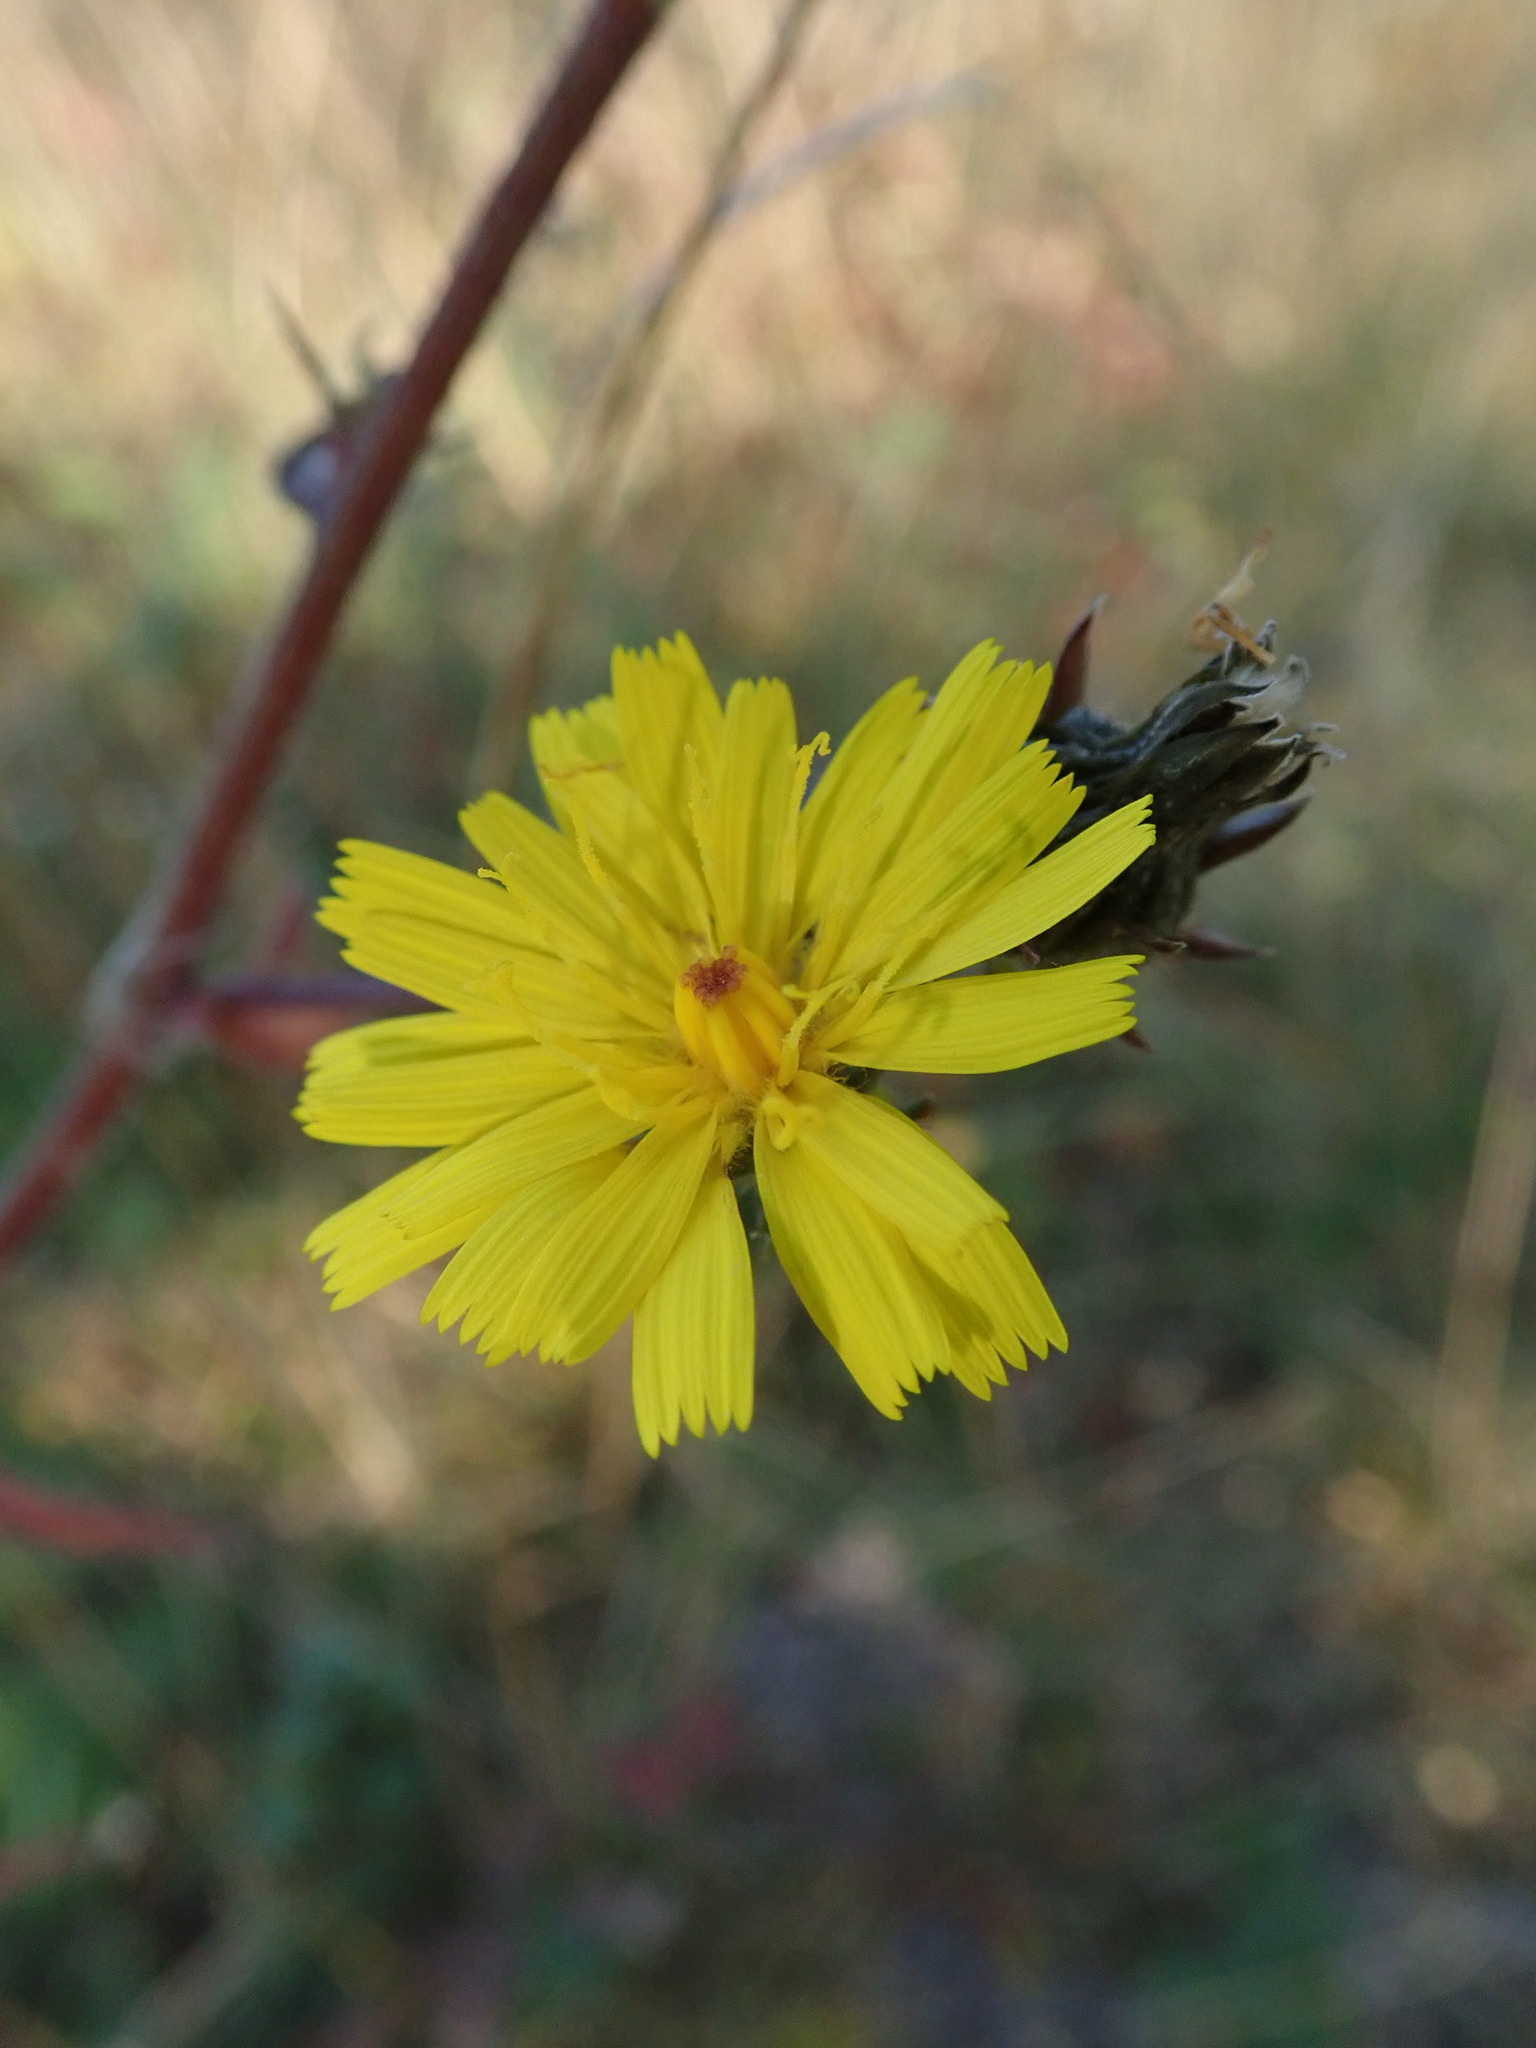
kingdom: Plantae
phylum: Tracheophyta
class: Magnoliopsida
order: Asterales
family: Asteraceae
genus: Picris
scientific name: Picris hieracioides
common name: Hawkweed oxtongue
